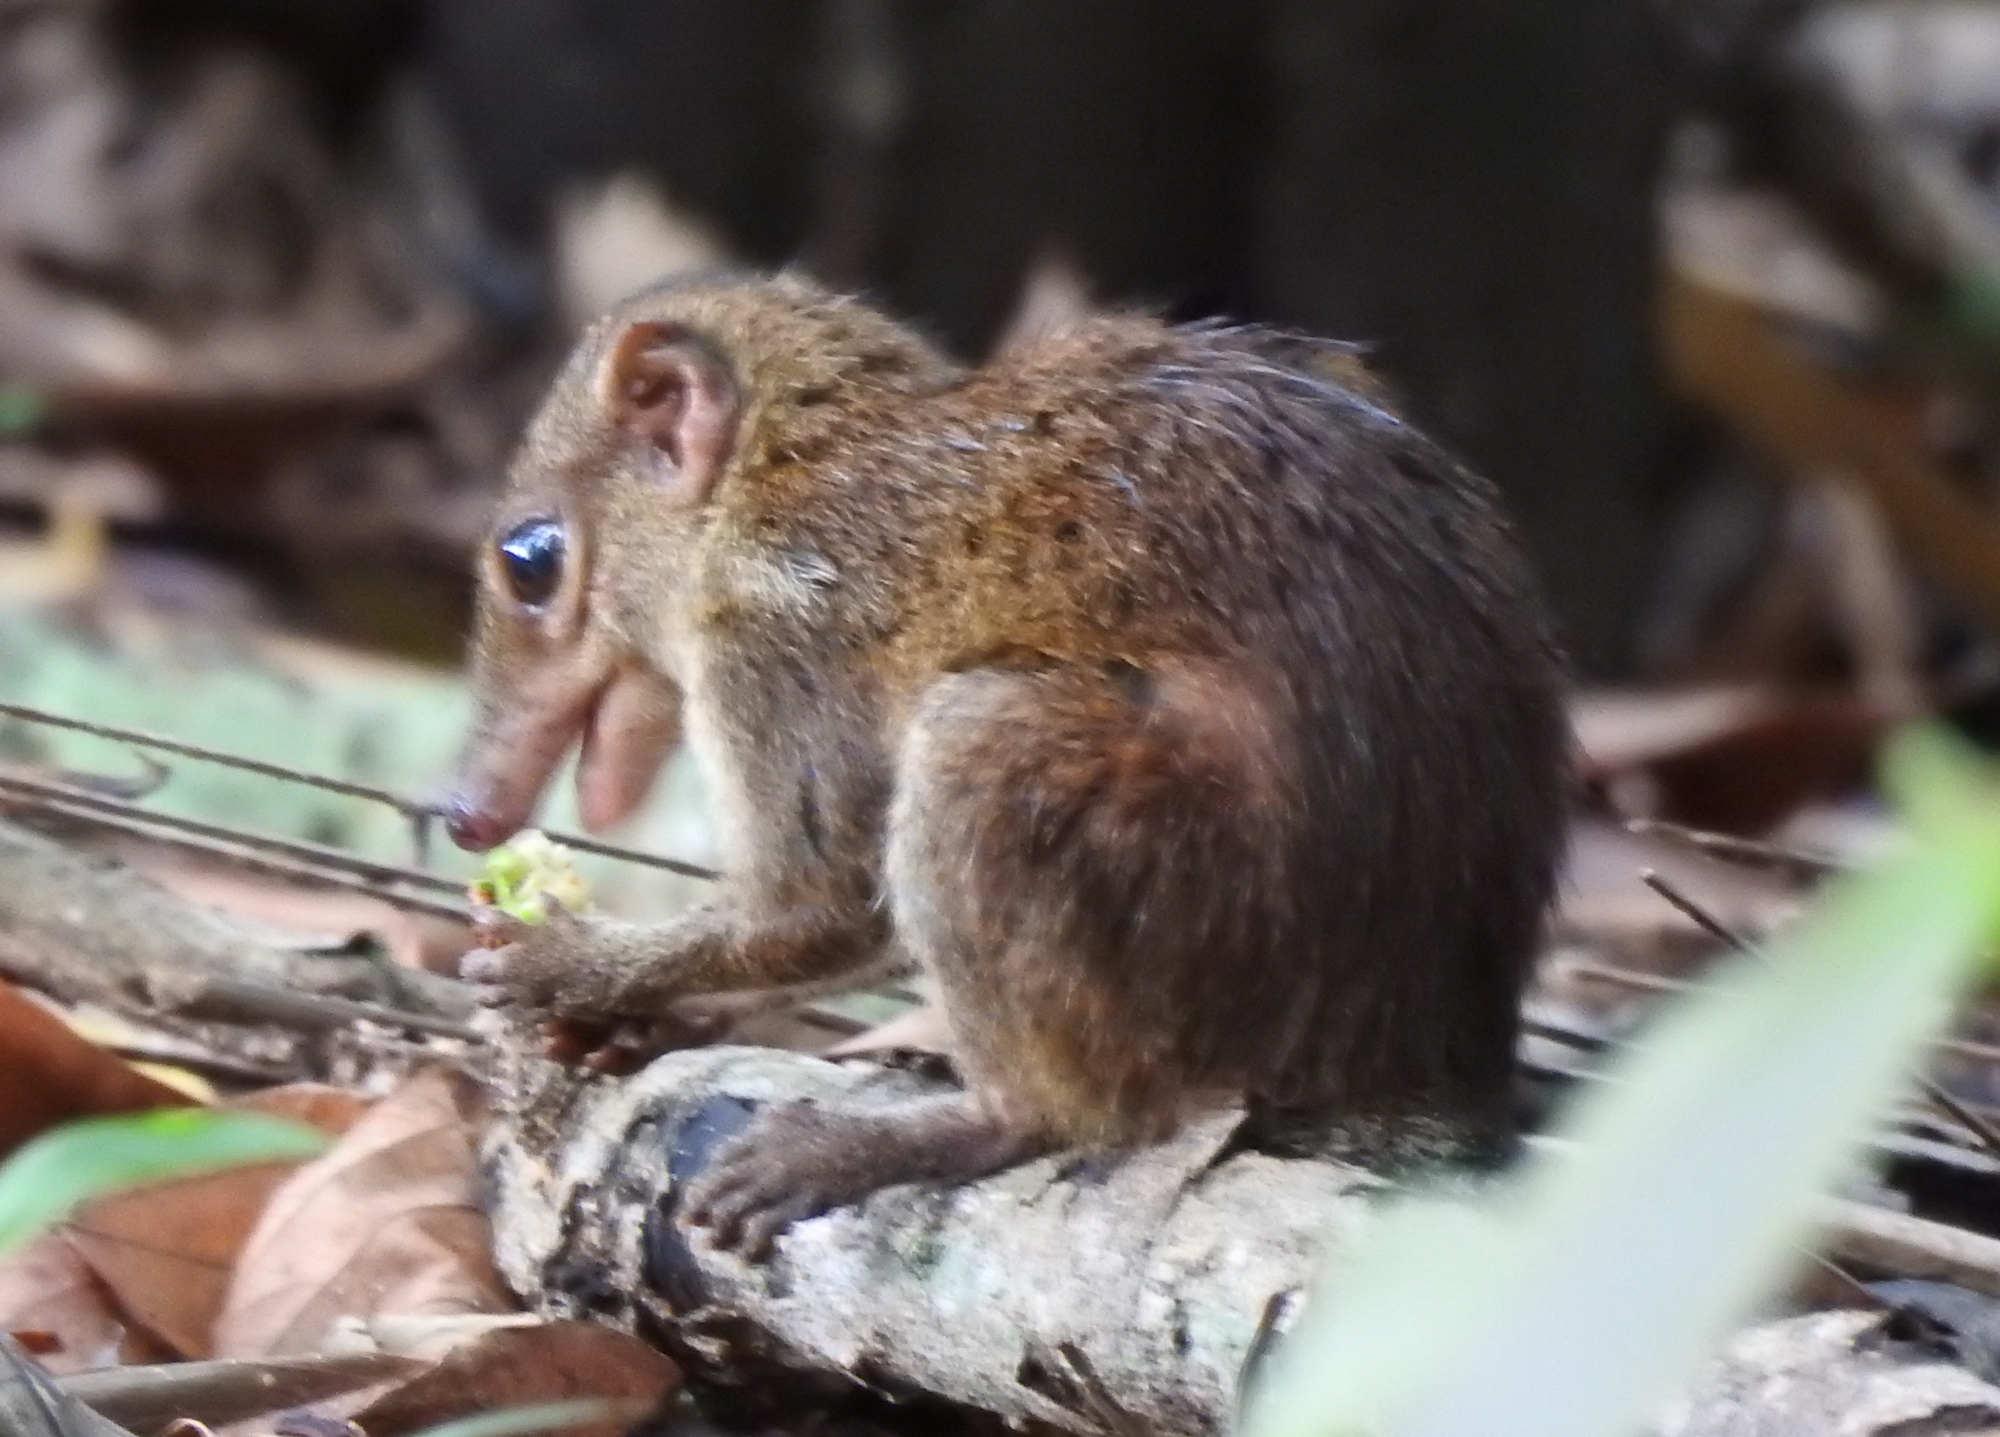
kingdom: Animalia
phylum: Chordata
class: Mammalia
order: Scandentia
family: Tupaiidae
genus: Tupaia
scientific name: Tupaia glis
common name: Common treeshrew
